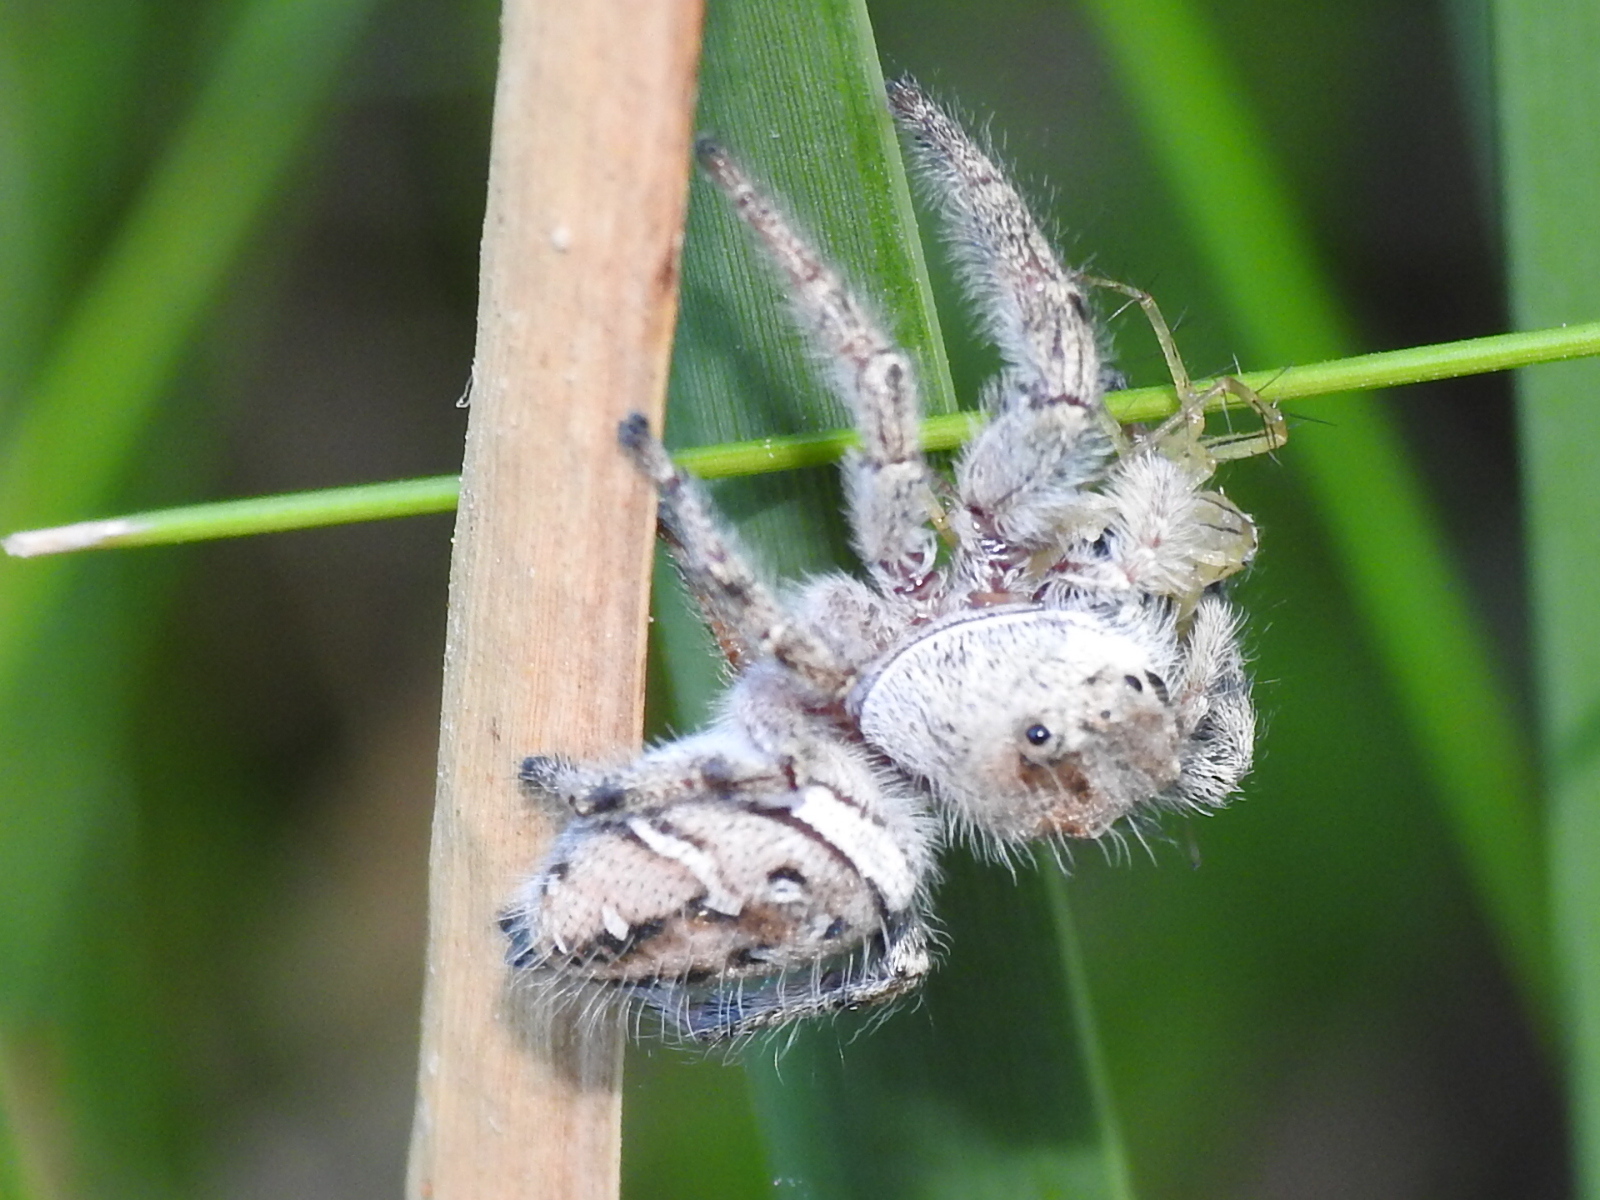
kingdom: Animalia
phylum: Arthropoda
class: Arachnida
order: Araneae
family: Salticidae
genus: Phidippus
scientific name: Phidippus clarus
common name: Brilliant jumping spider
